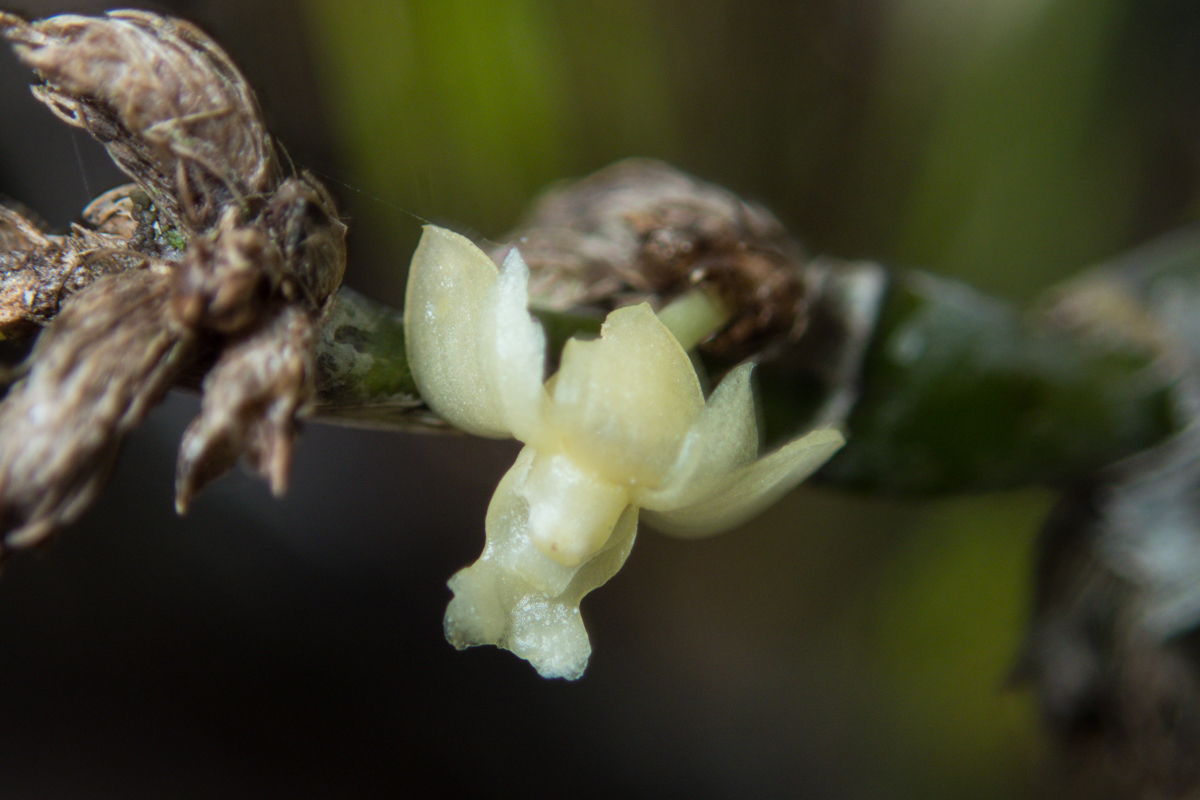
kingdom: Plantae
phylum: Tracheophyta
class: Liliopsida
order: Asparagales
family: Orchidaceae
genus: Dendrobium
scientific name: Dendrobium aloifolium
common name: Aloe-like dendrobium
